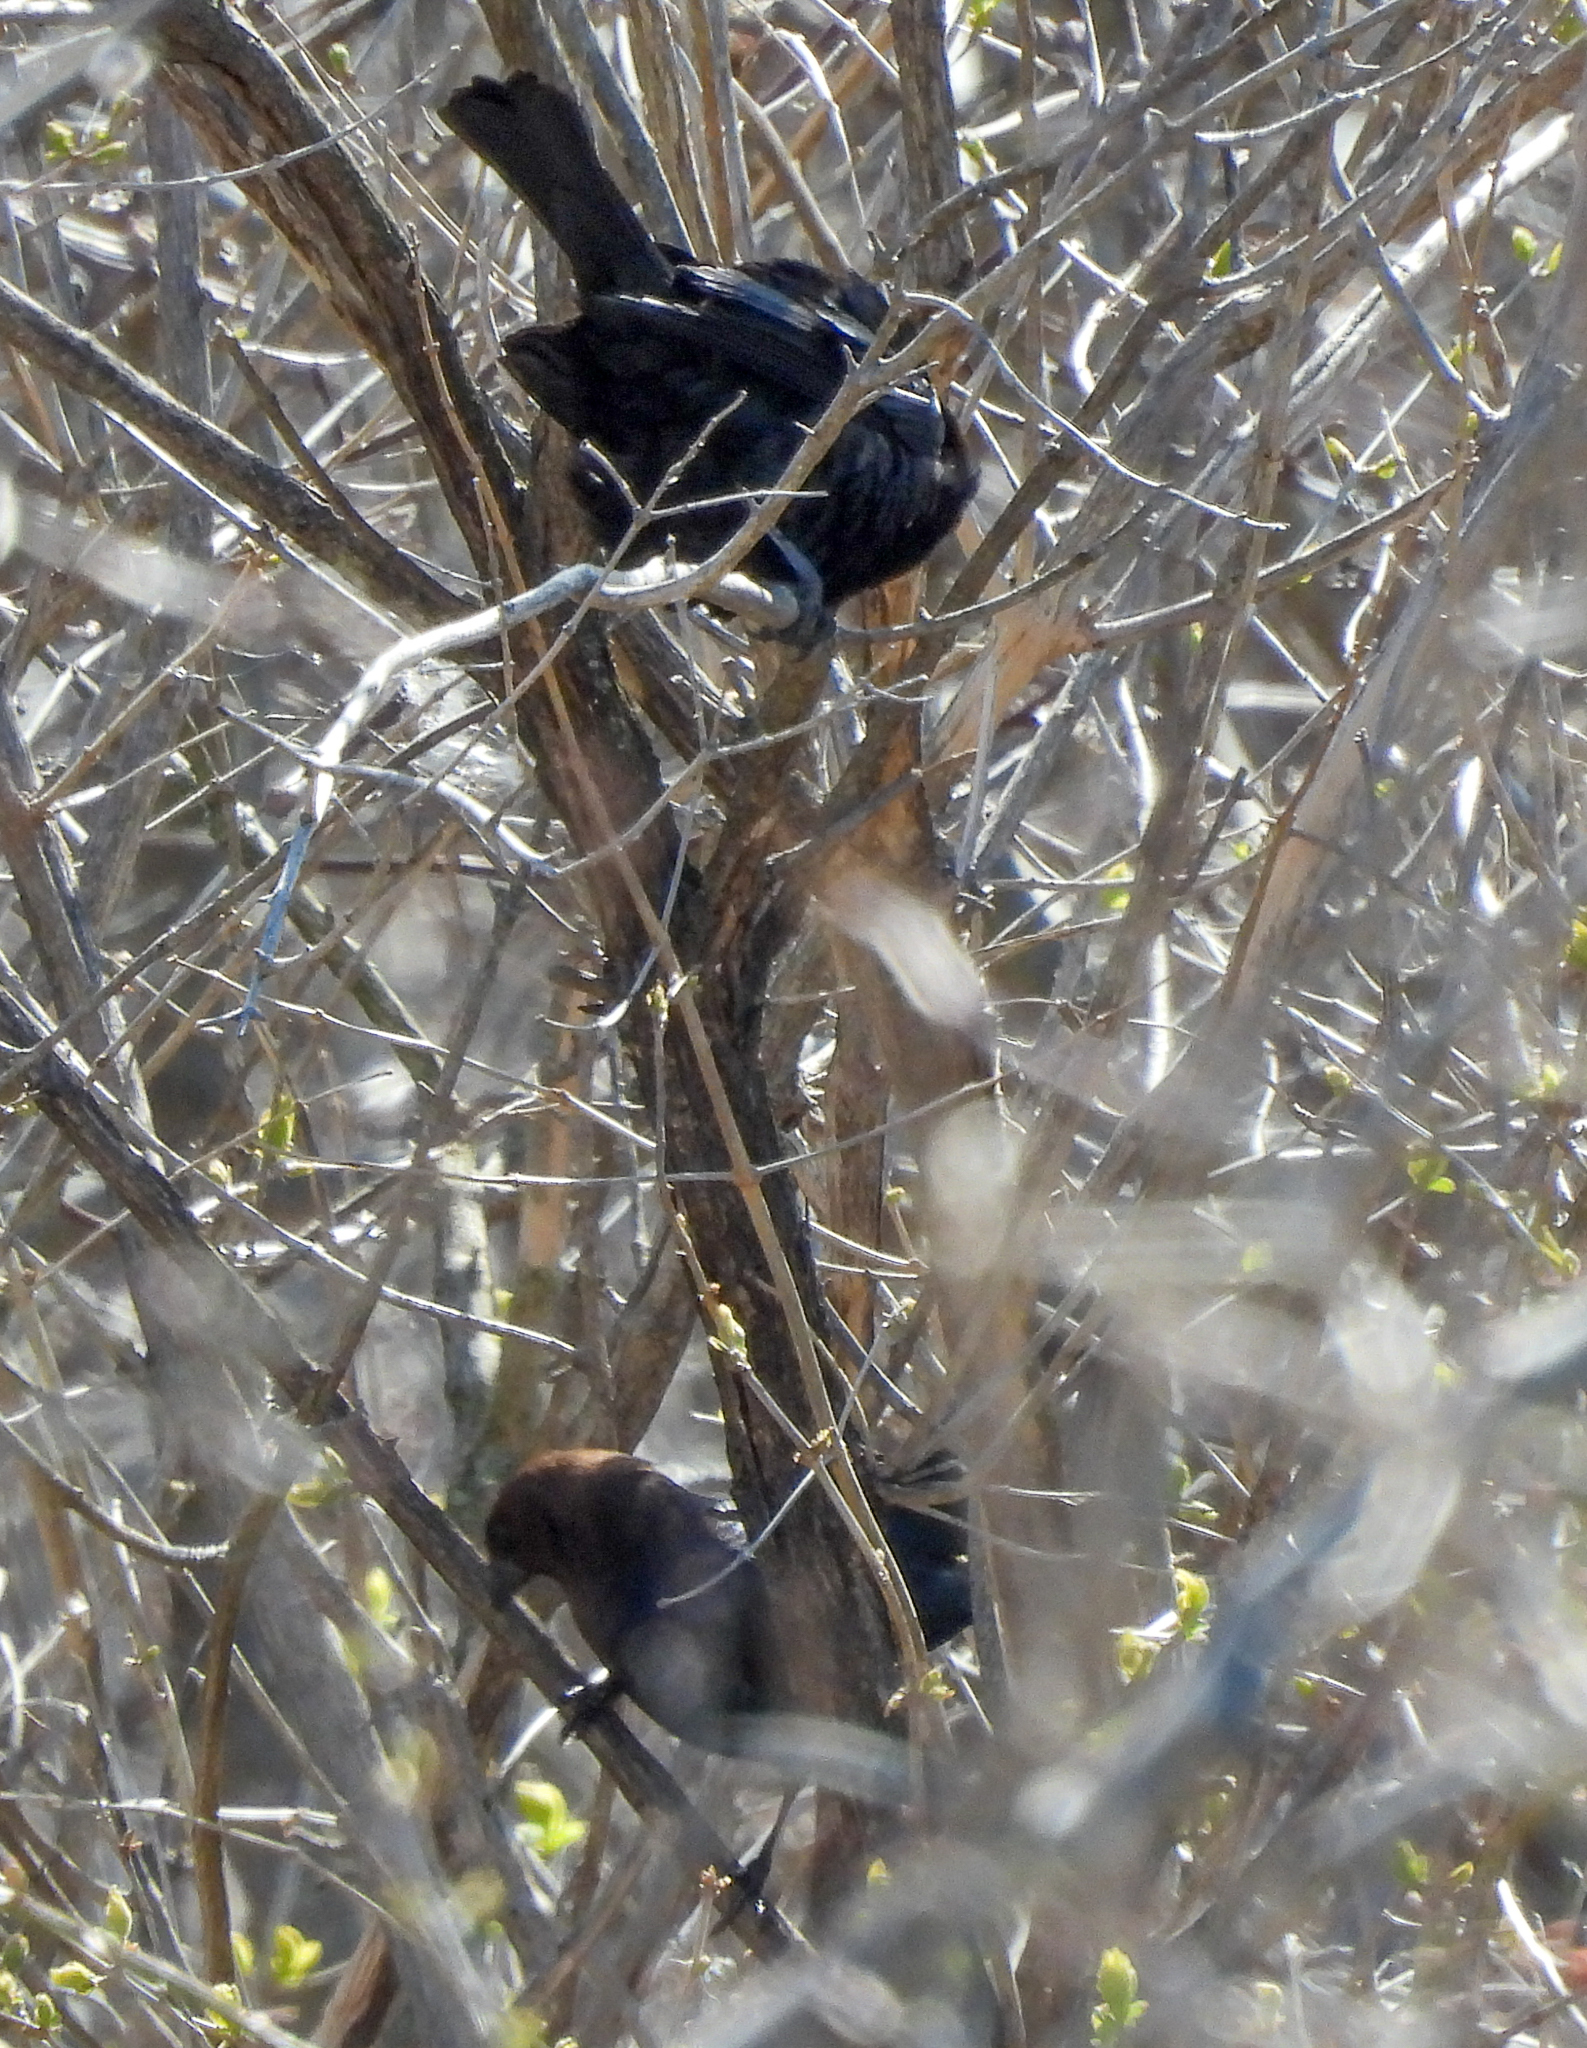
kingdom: Animalia
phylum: Chordata
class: Aves
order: Passeriformes
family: Icteridae
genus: Molothrus
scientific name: Molothrus ater
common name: Brown-headed cowbird
